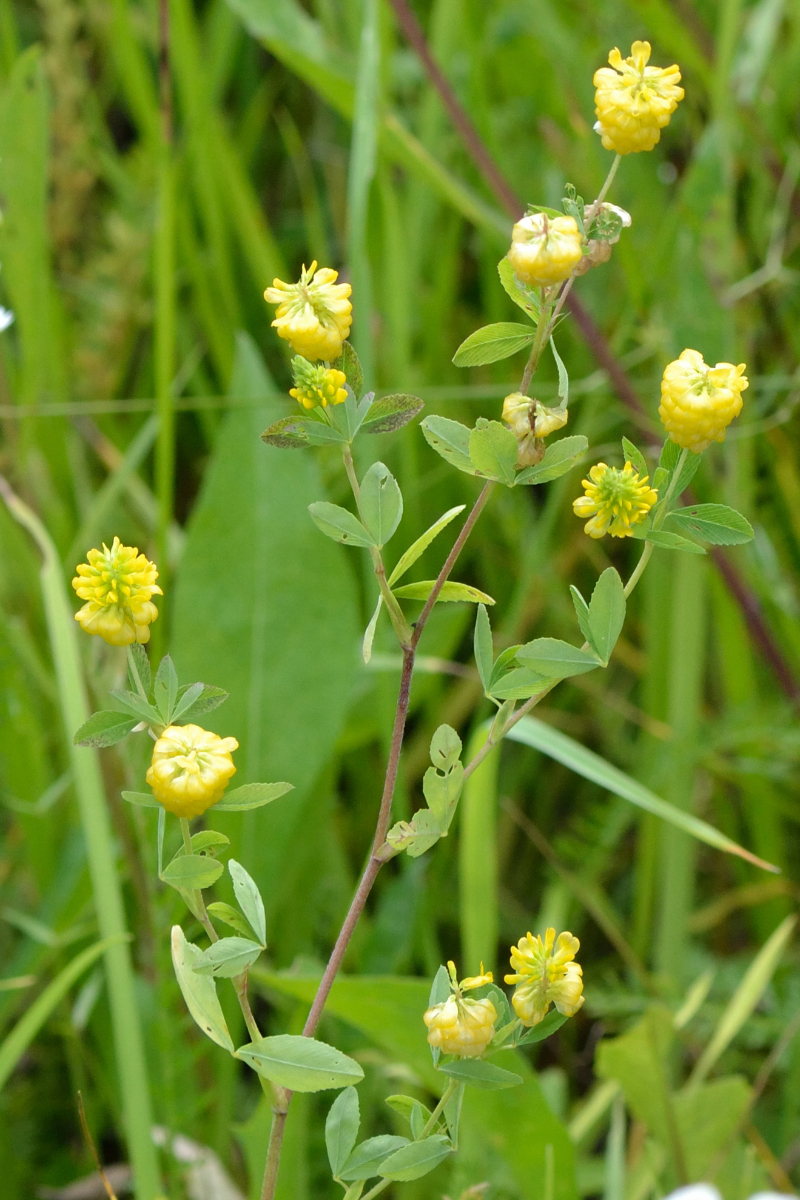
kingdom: Plantae
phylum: Tracheophyta
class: Magnoliopsida
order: Fabales
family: Fabaceae
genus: Trifolium
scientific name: Trifolium aureum
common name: Golden clover
